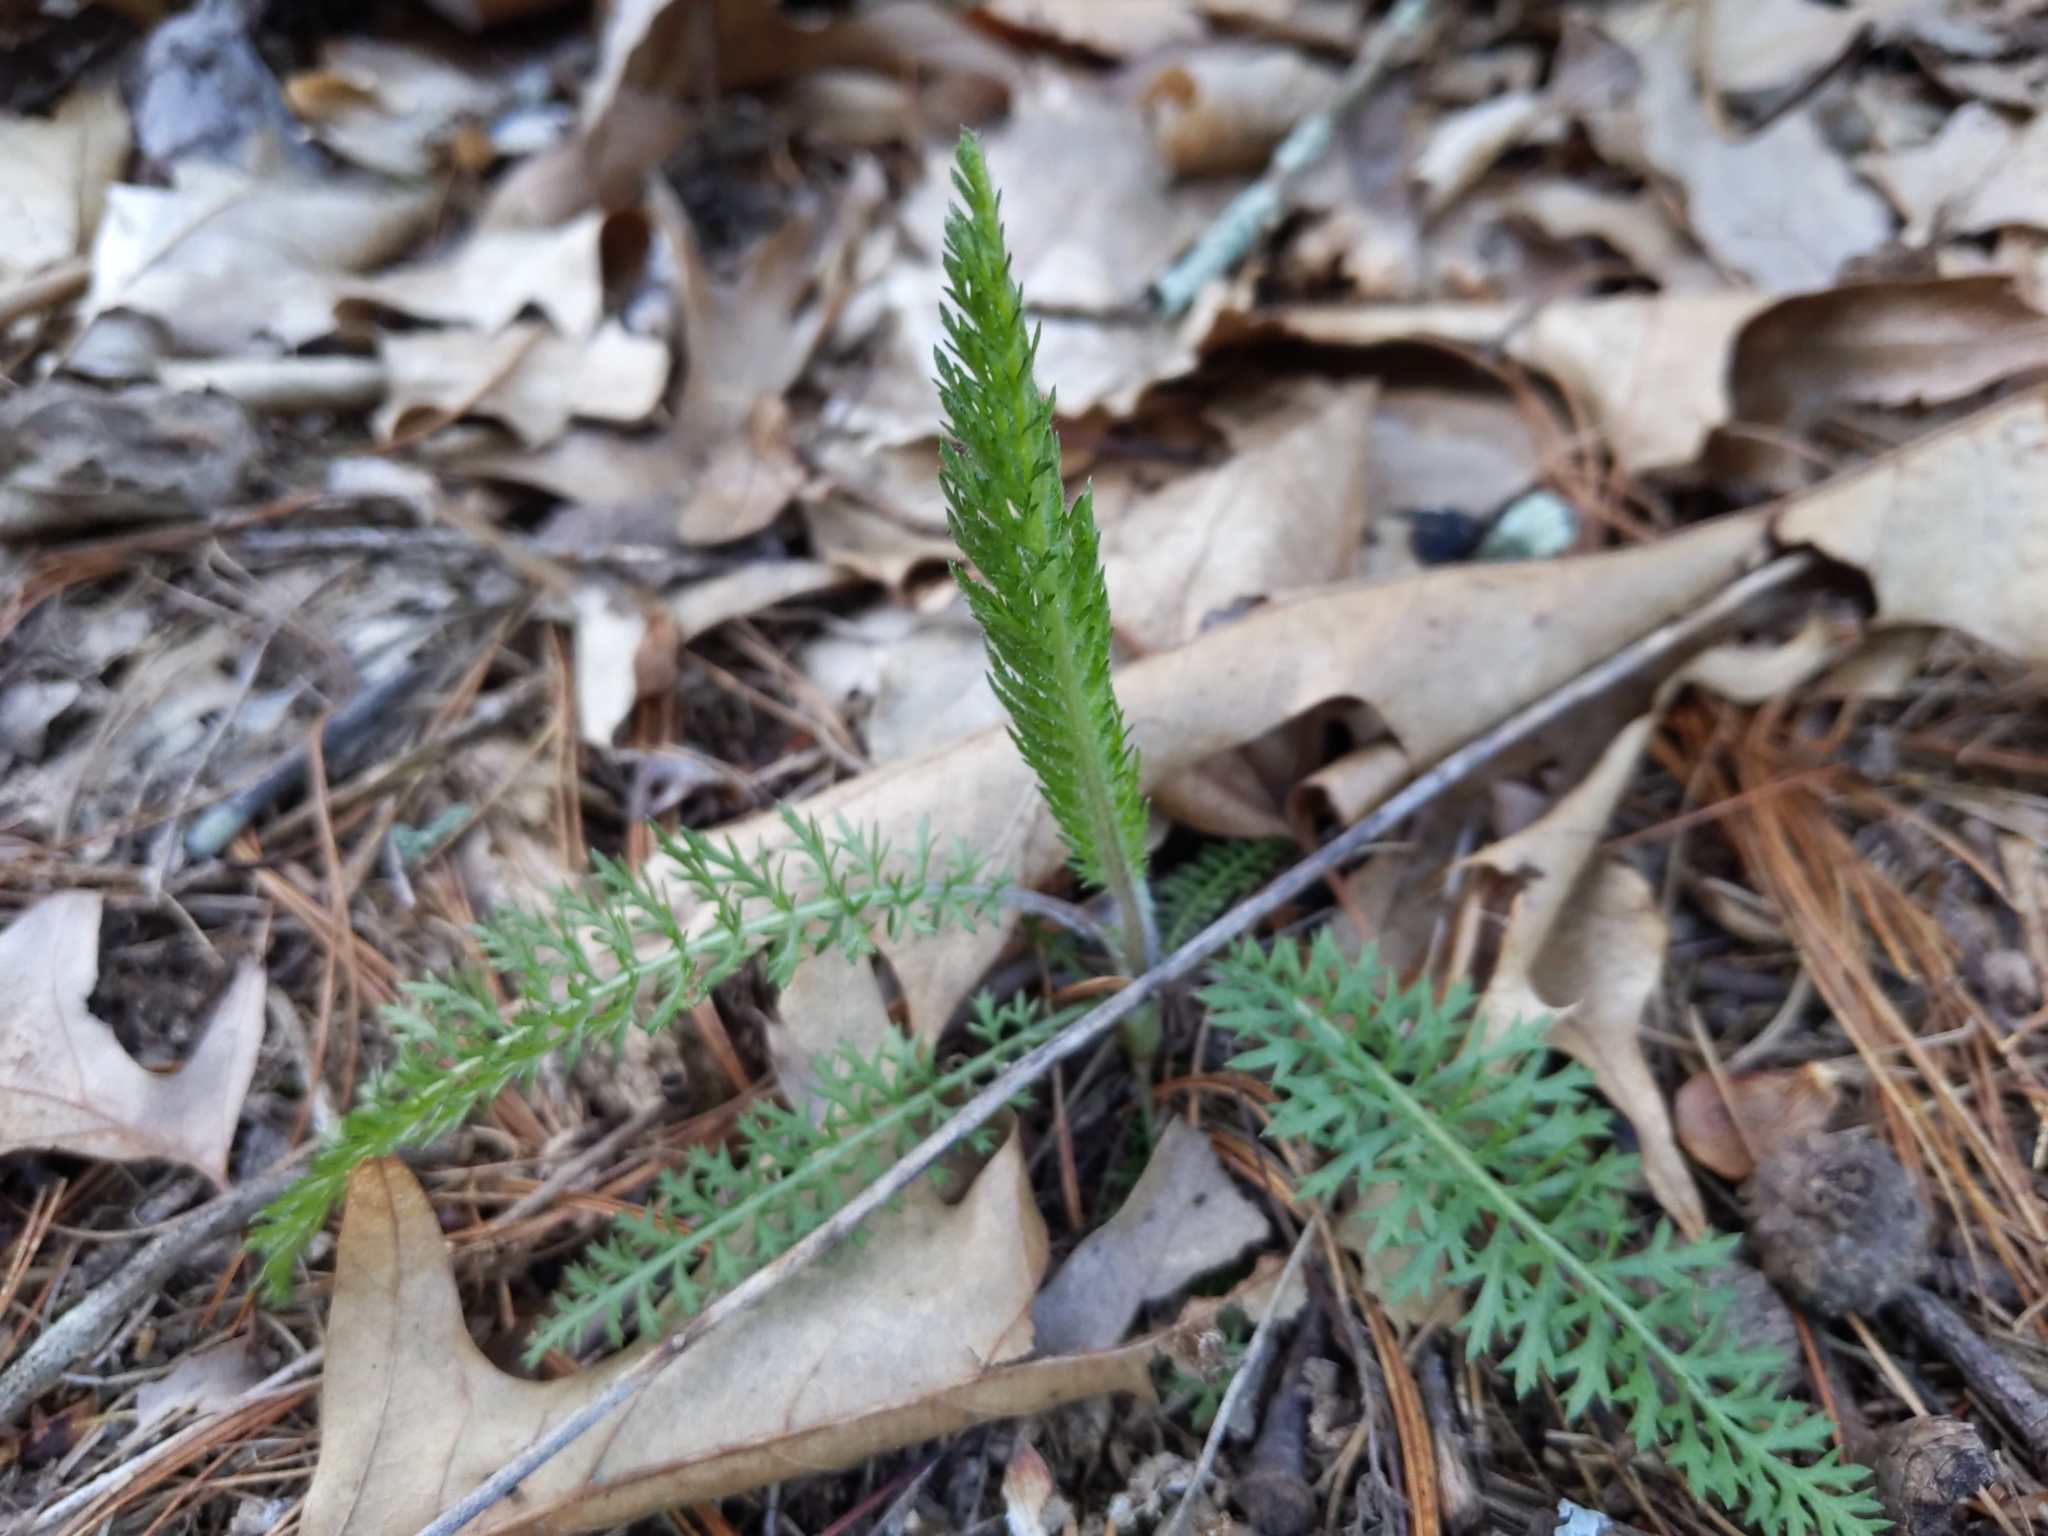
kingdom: Plantae
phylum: Tracheophyta
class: Magnoliopsida
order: Asterales
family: Asteraceae
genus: Achillea
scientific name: Achillea millefolium
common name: Yarrow
